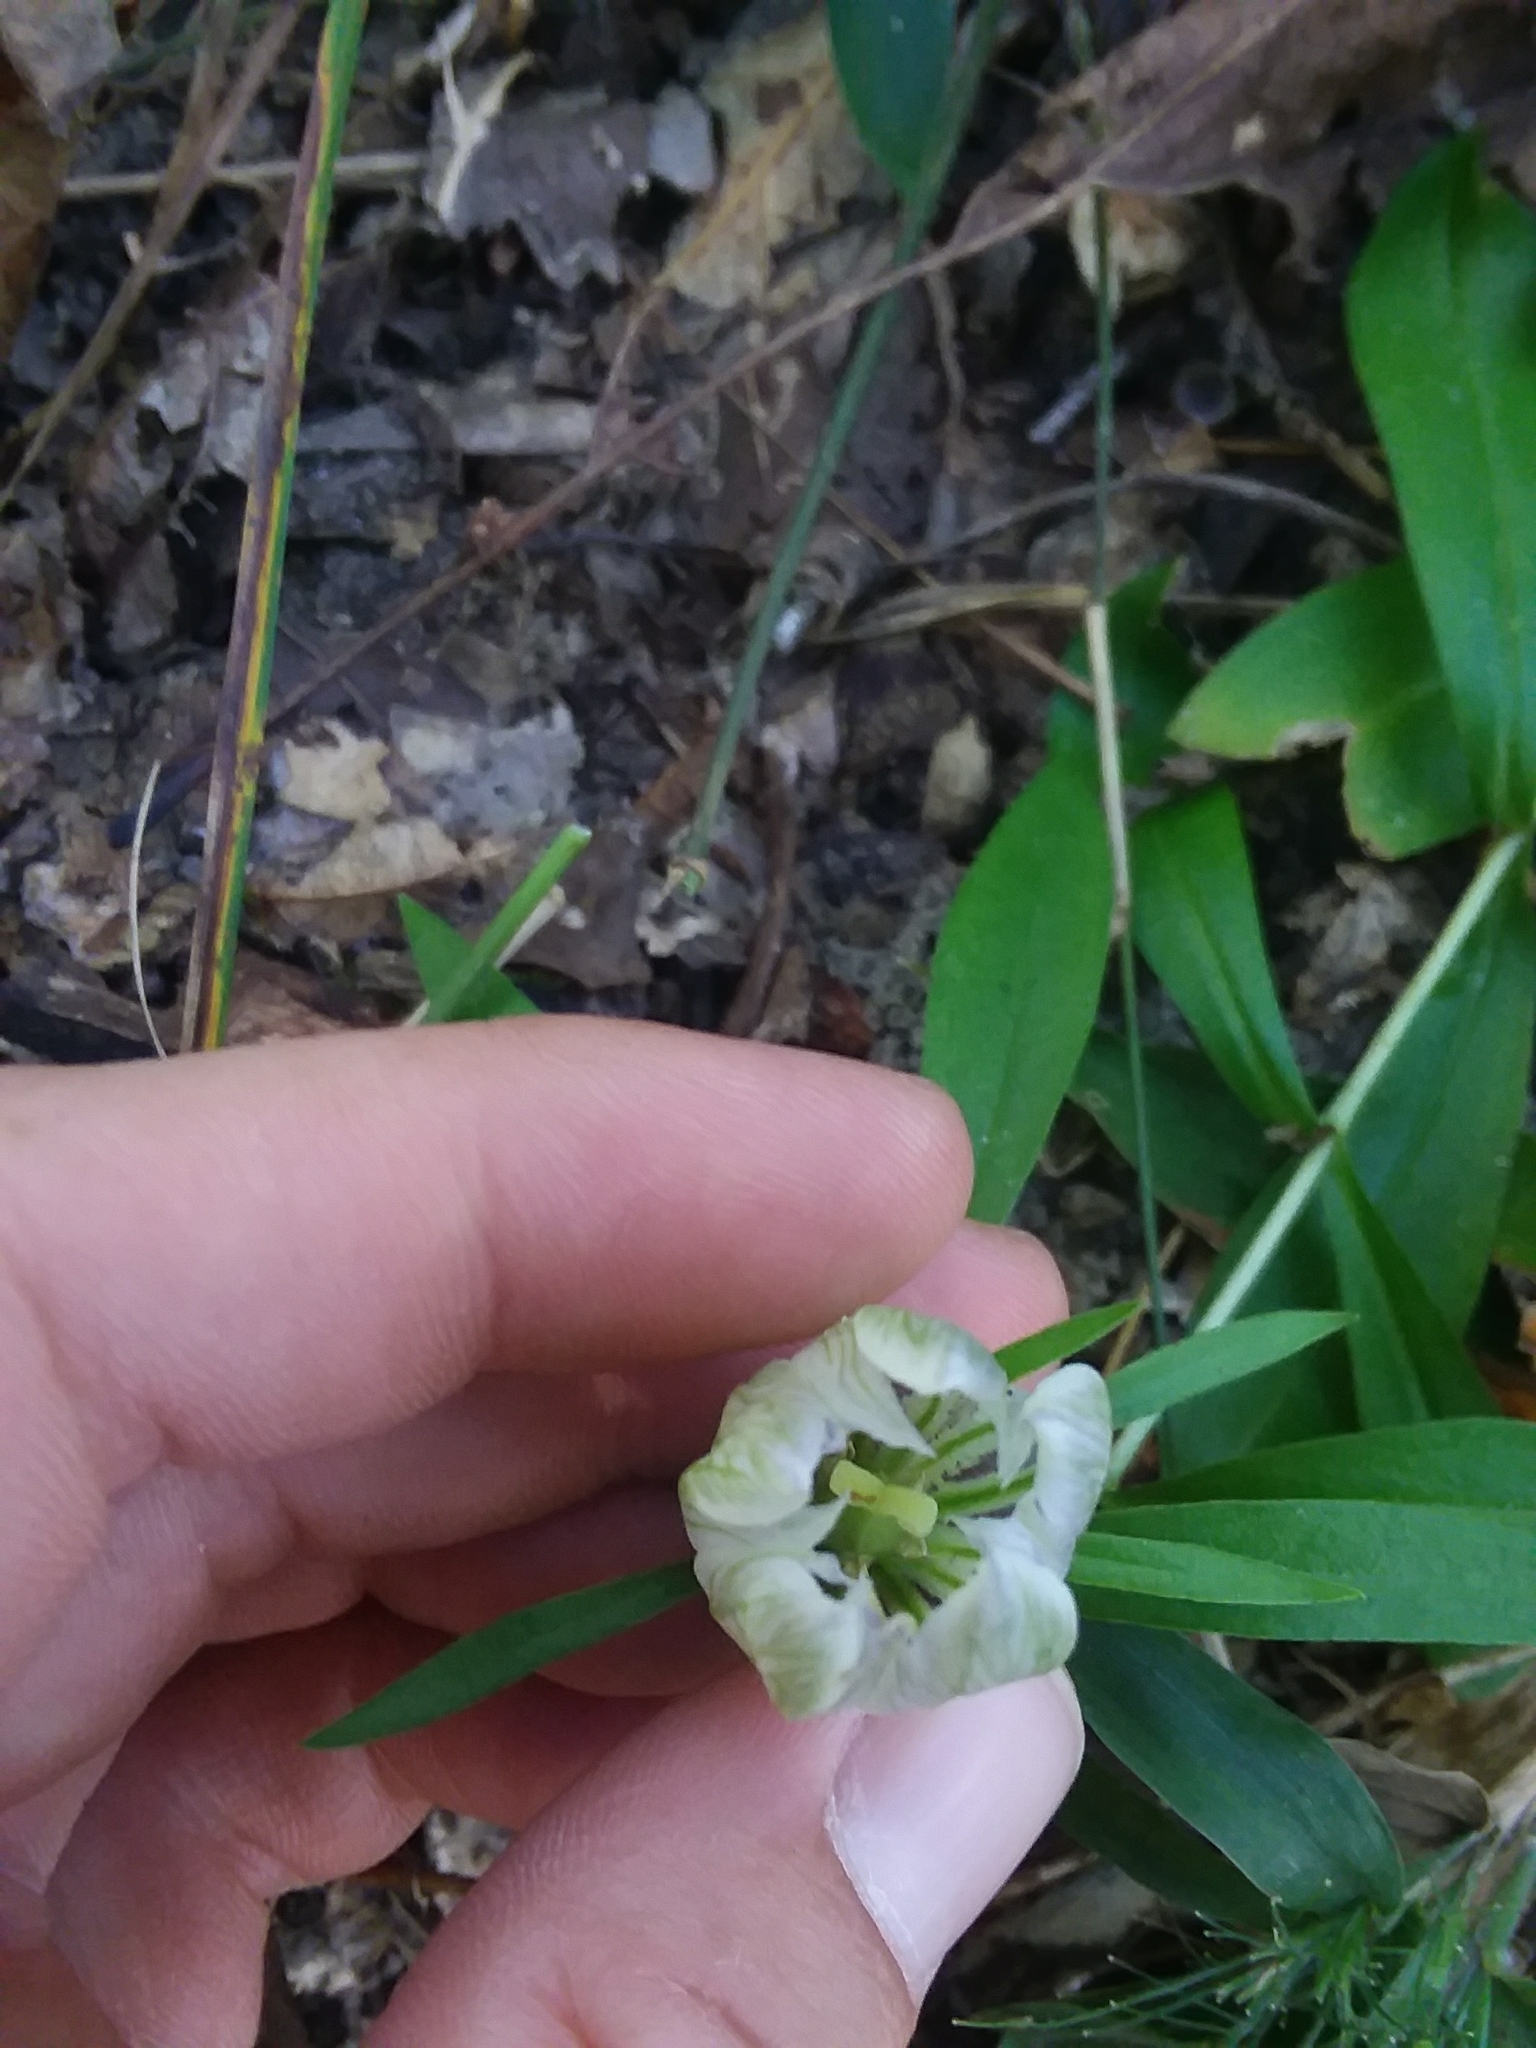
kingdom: Plantae
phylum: Tracheophyta
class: Magnoliopsida
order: Gentianales
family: Gentianaceae
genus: Gentiana
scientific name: Gentiana villosa
